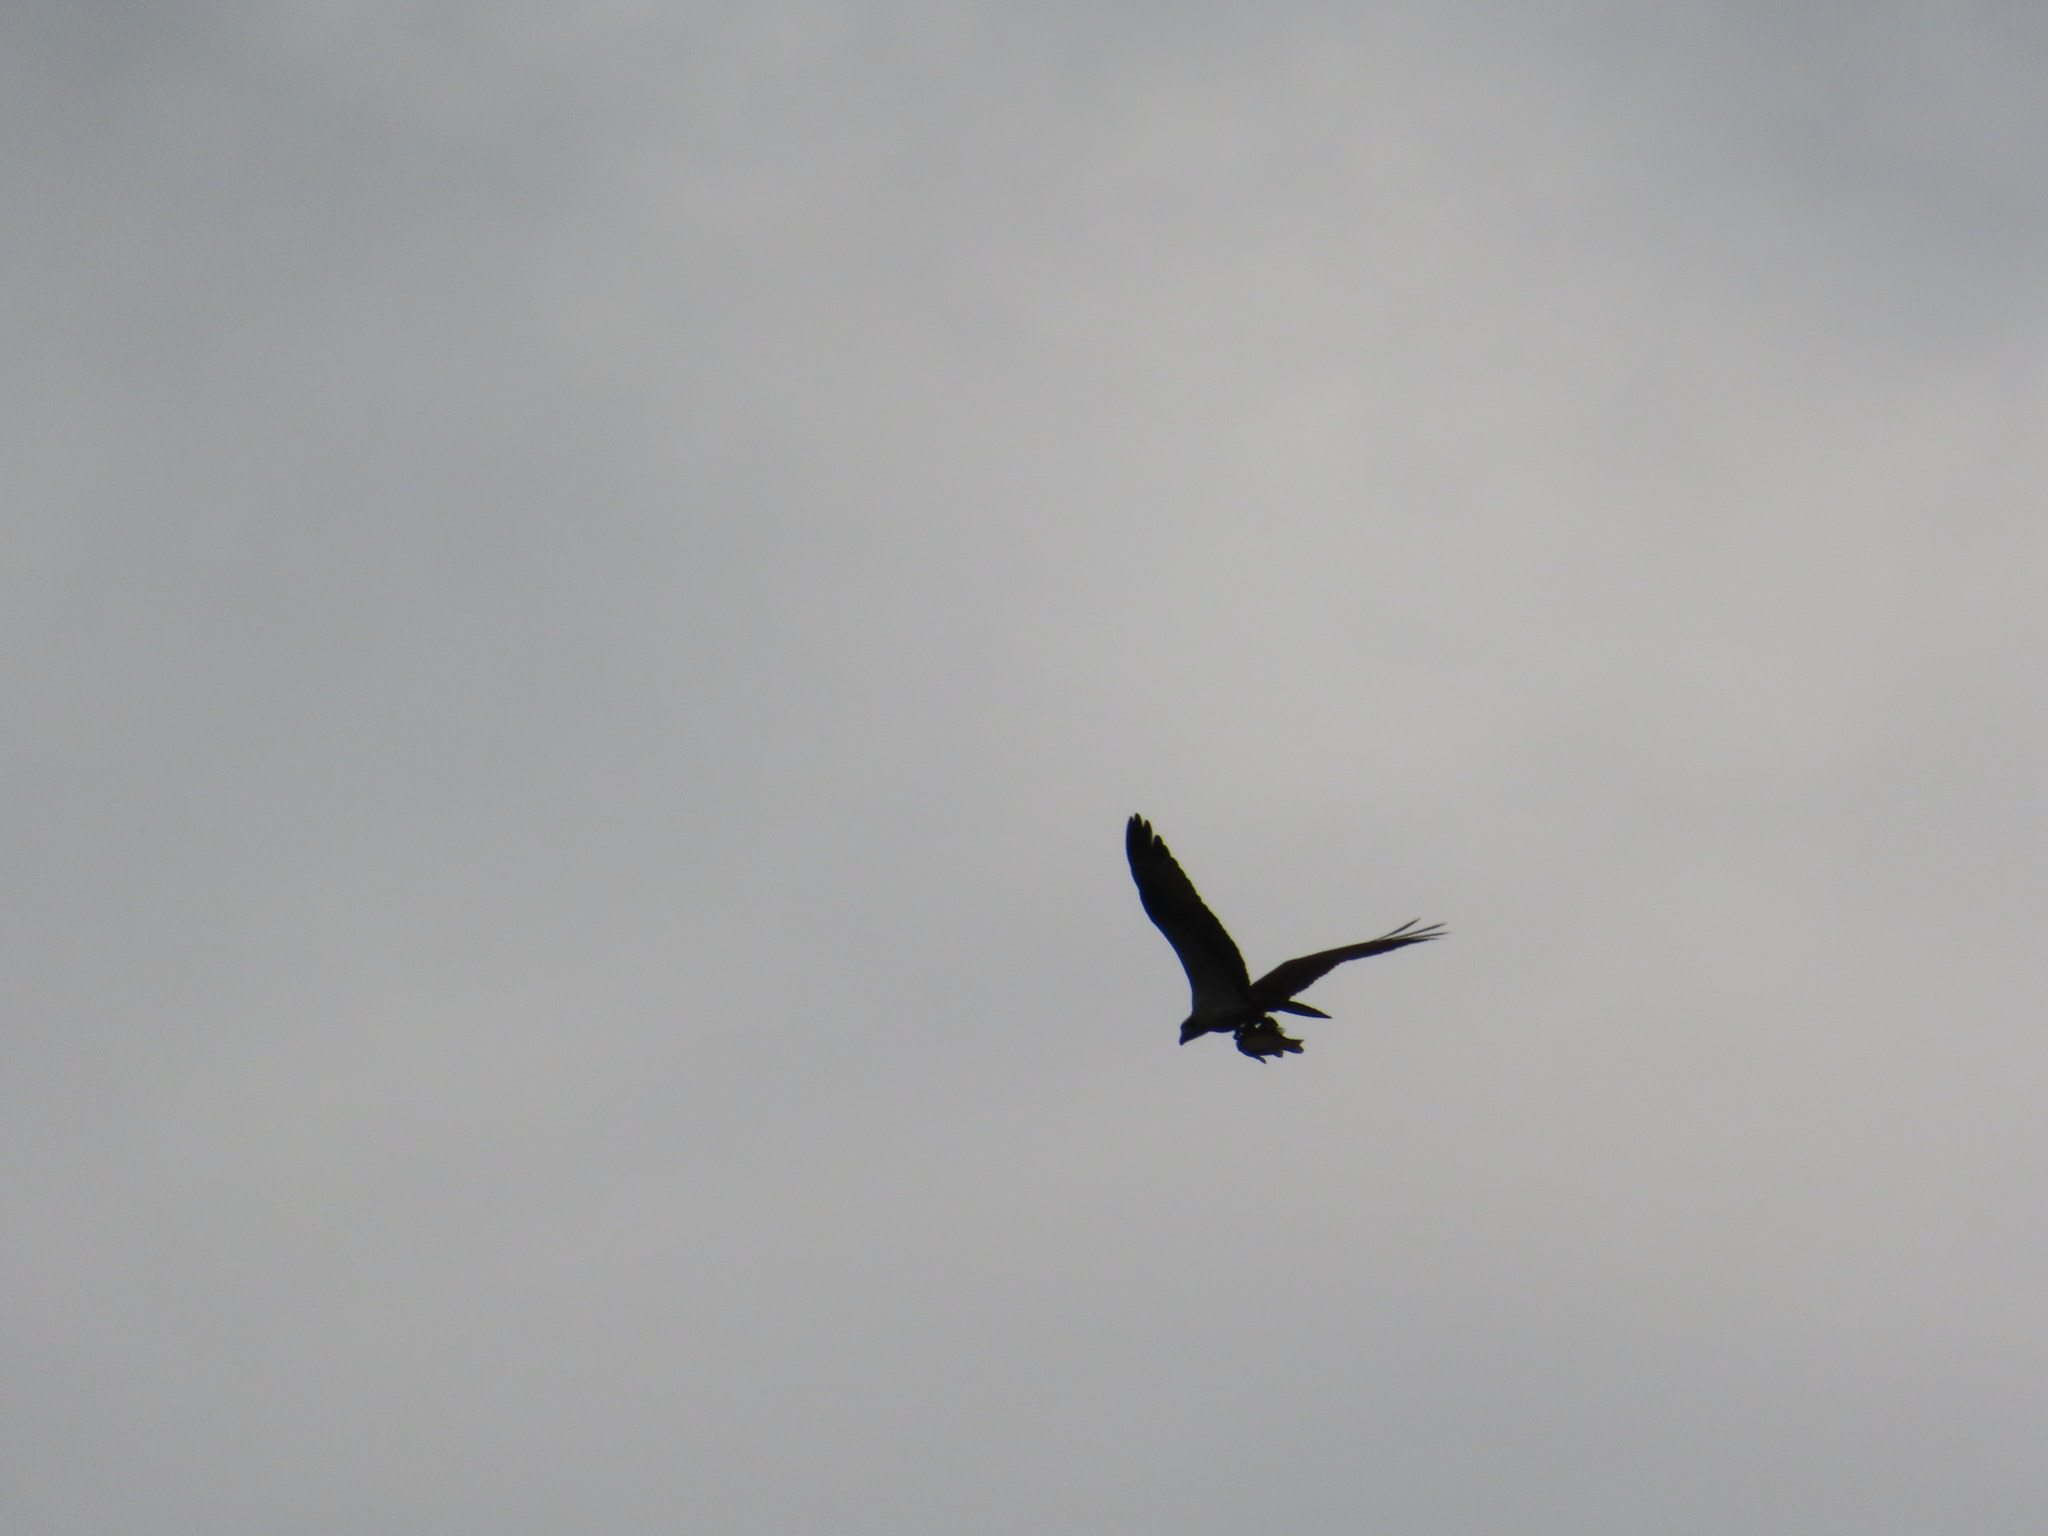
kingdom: Animalia
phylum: Chordata
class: Aves
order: Accipitriformes
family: Pandionidae
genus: Pandion
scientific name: Pandion haliaetus
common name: Osprey
